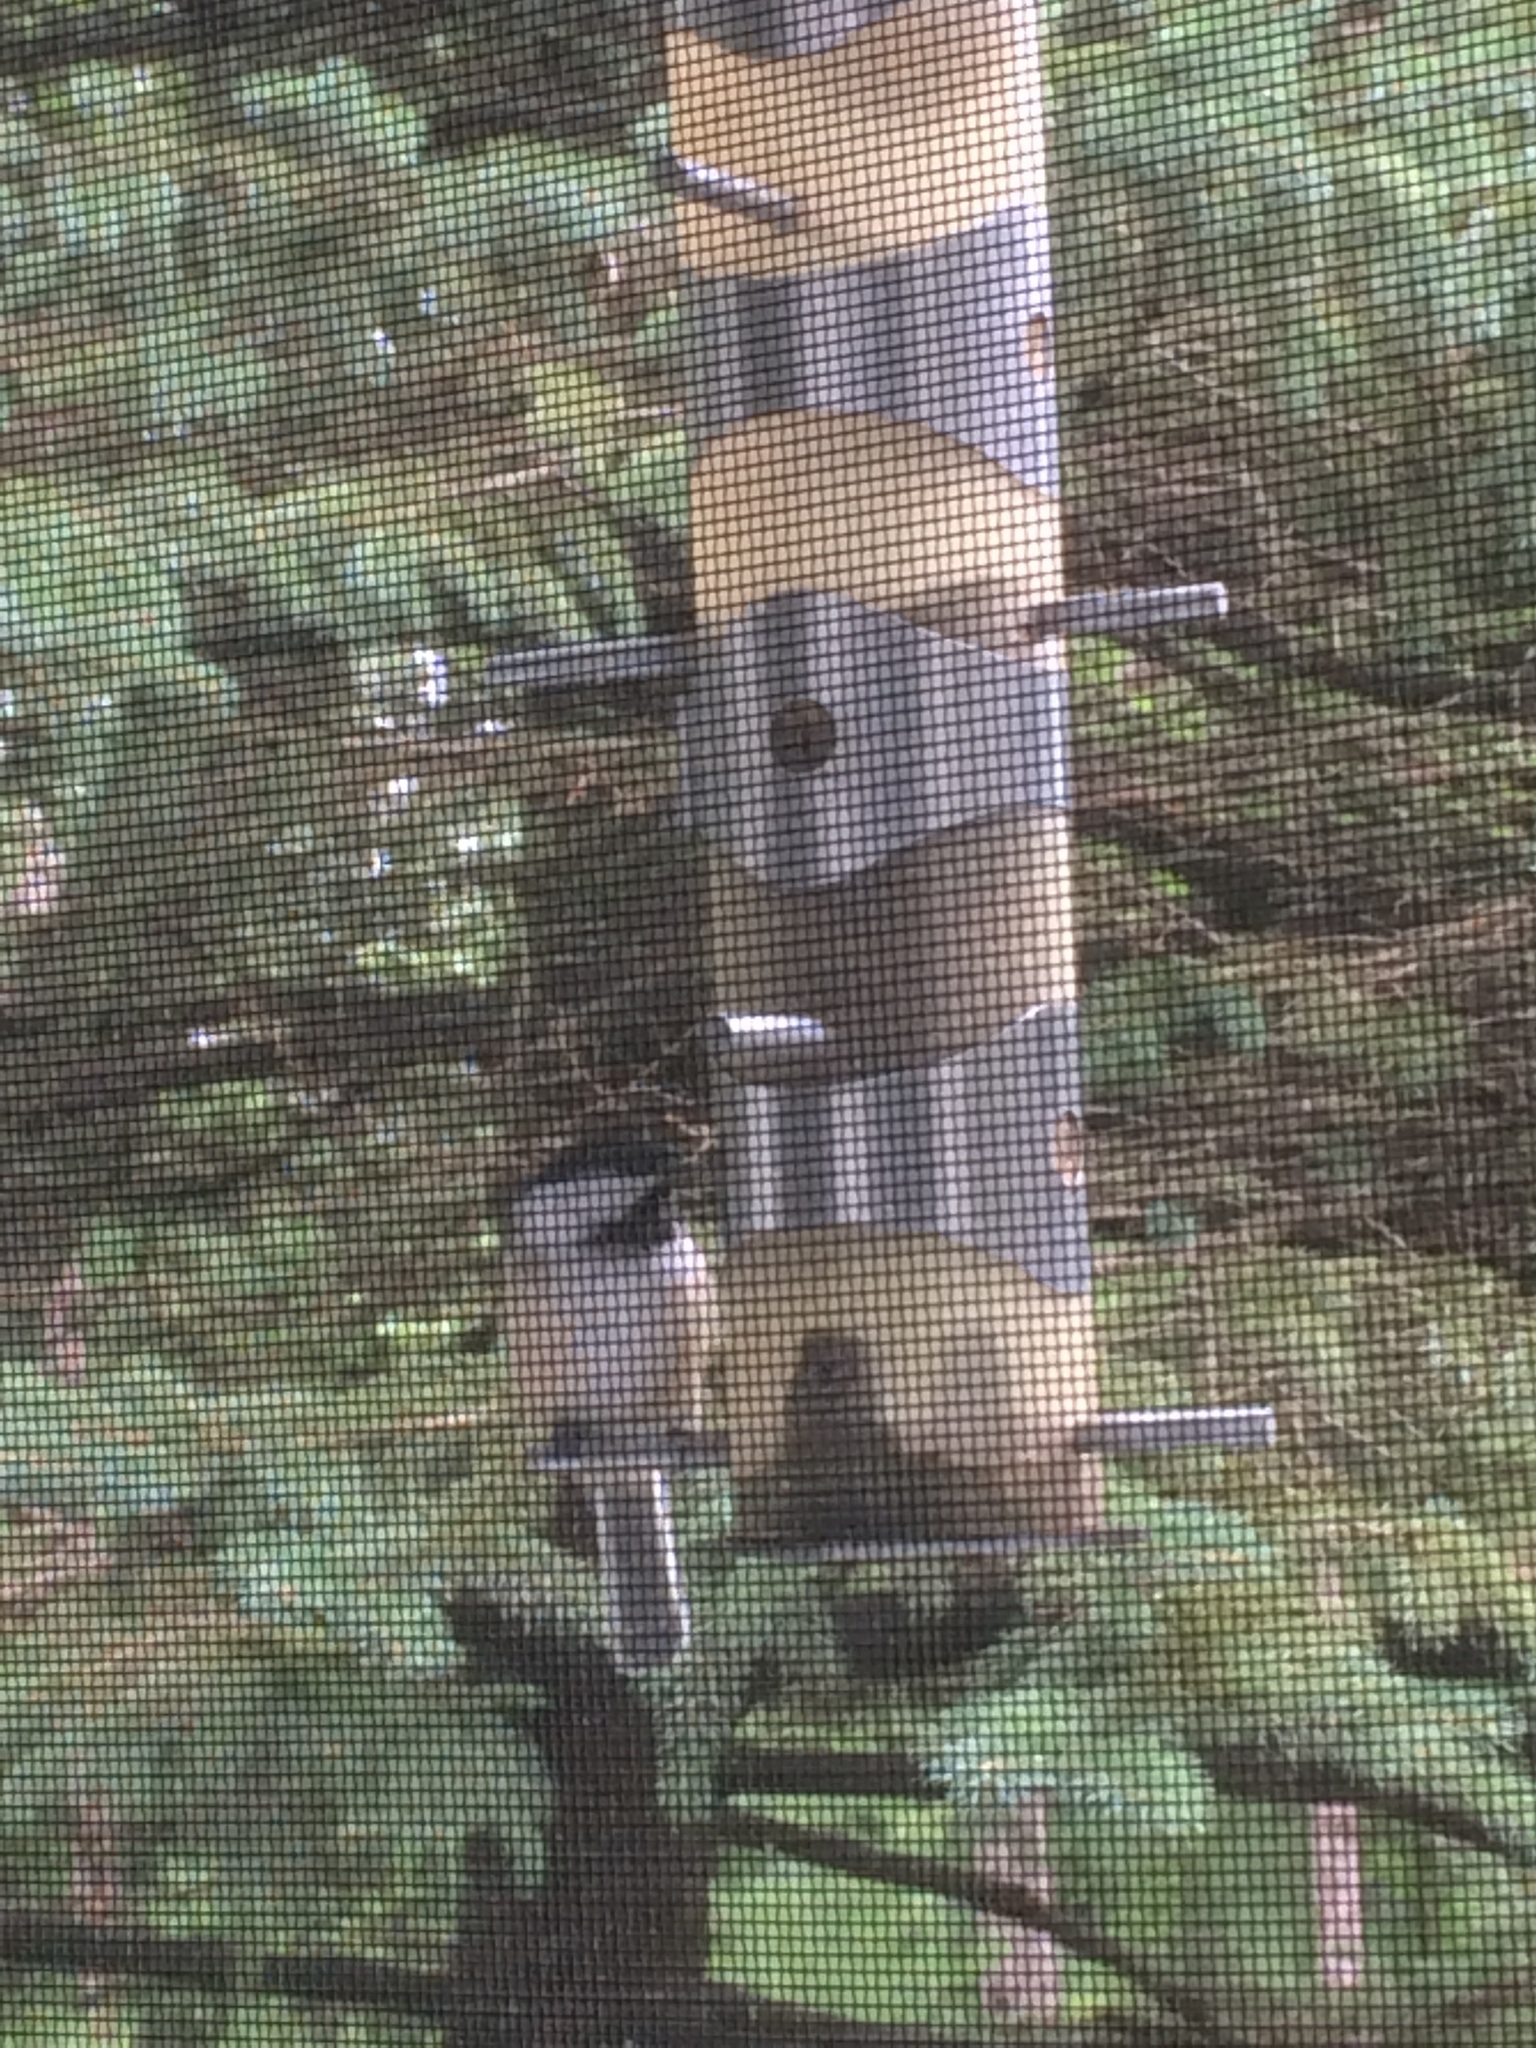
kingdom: Animalia
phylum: Chordata
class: Aves
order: Passeriformes
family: Paridae
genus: Poecile
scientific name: Poecile atricapillus
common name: Black-capped chickadee
